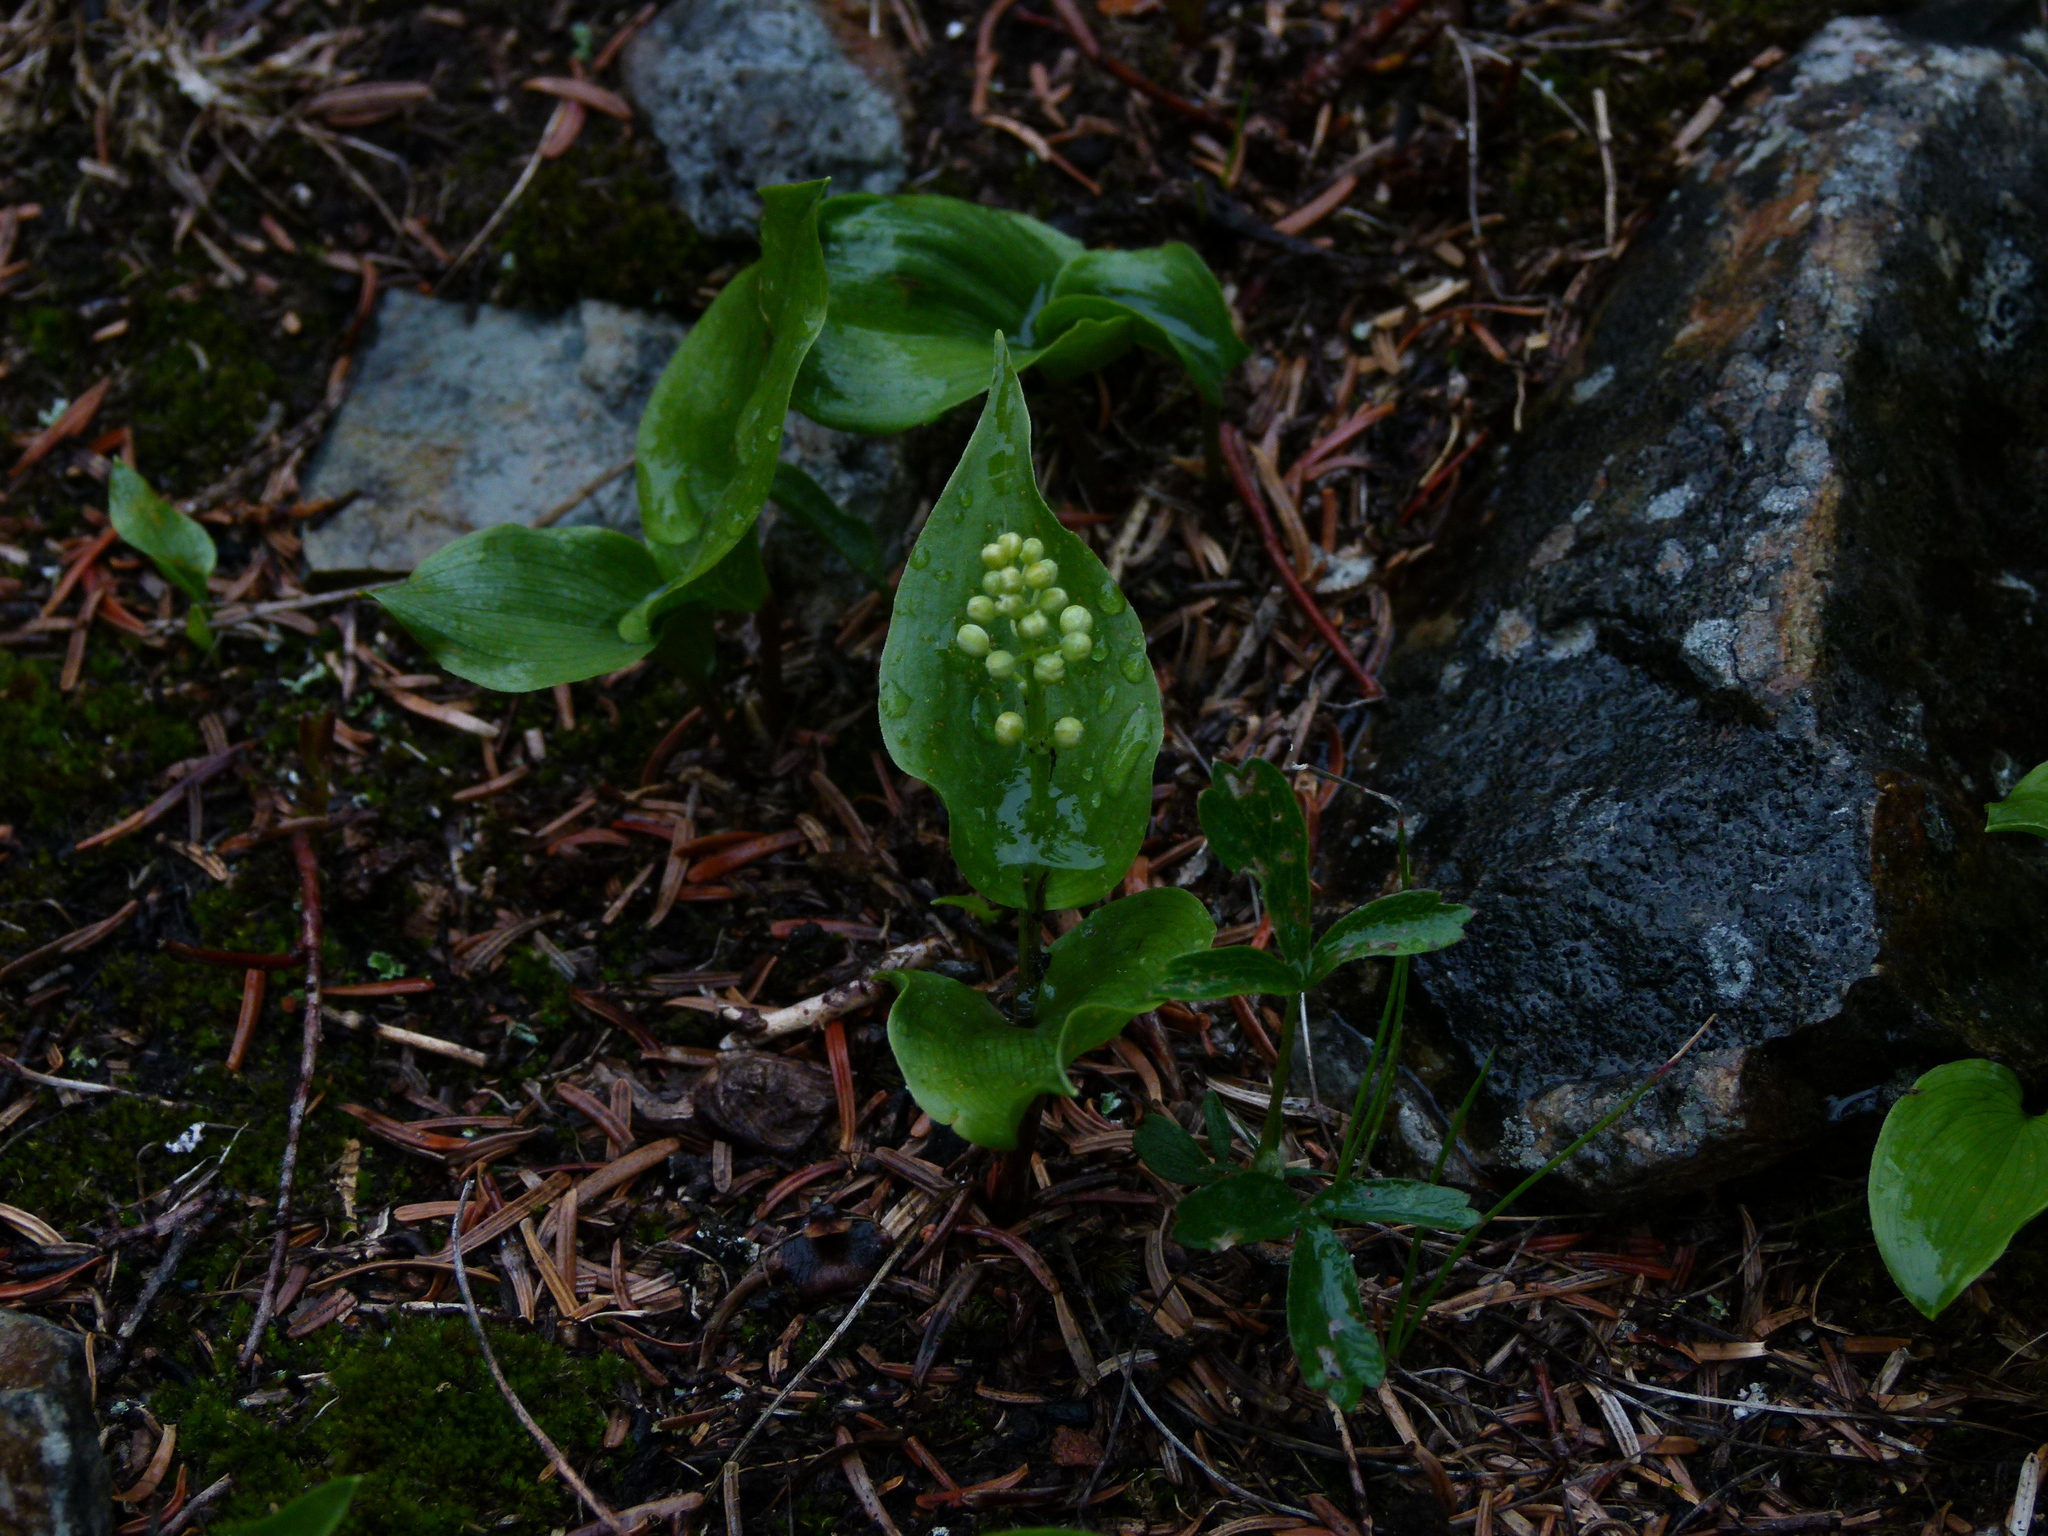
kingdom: Plantae
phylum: Tracheophyta
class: Liliopsida
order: Asparagales
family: Asparagaceae
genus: Maianthemum
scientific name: Maianthemum canadense
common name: False lily-of-the-valley
